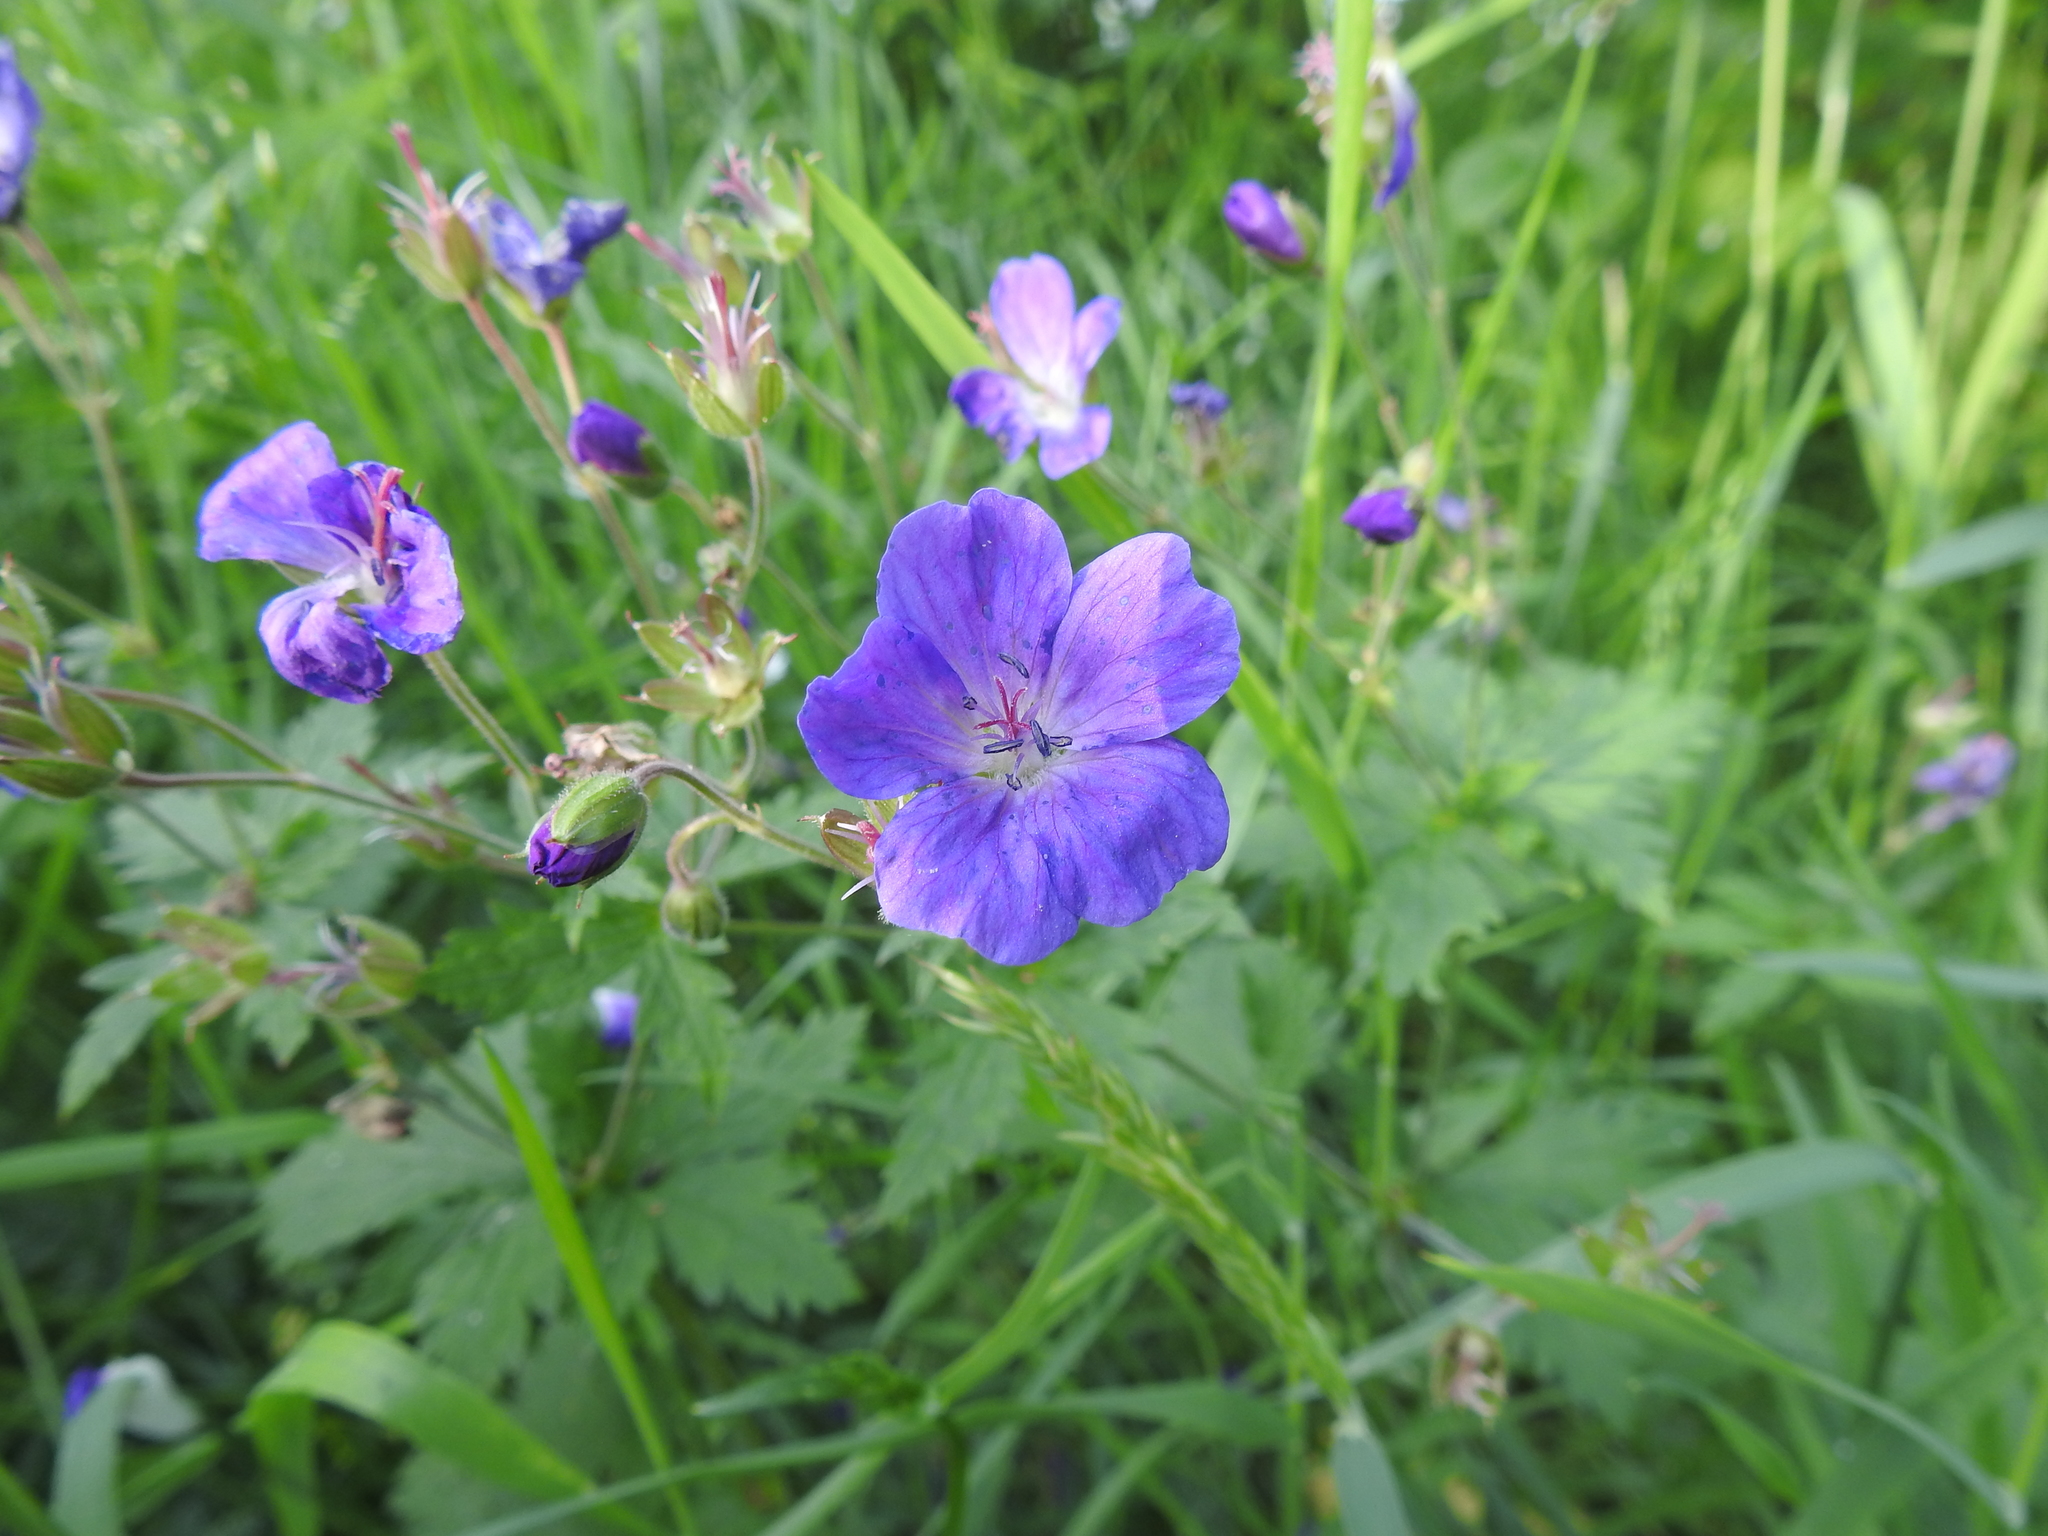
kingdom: Plantae
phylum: Tracheophyta
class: Magnoliopsida
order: Geraniales
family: Geraniaceae
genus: Geranium
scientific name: Geranium sylvaticum
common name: Wood crane's-bill
